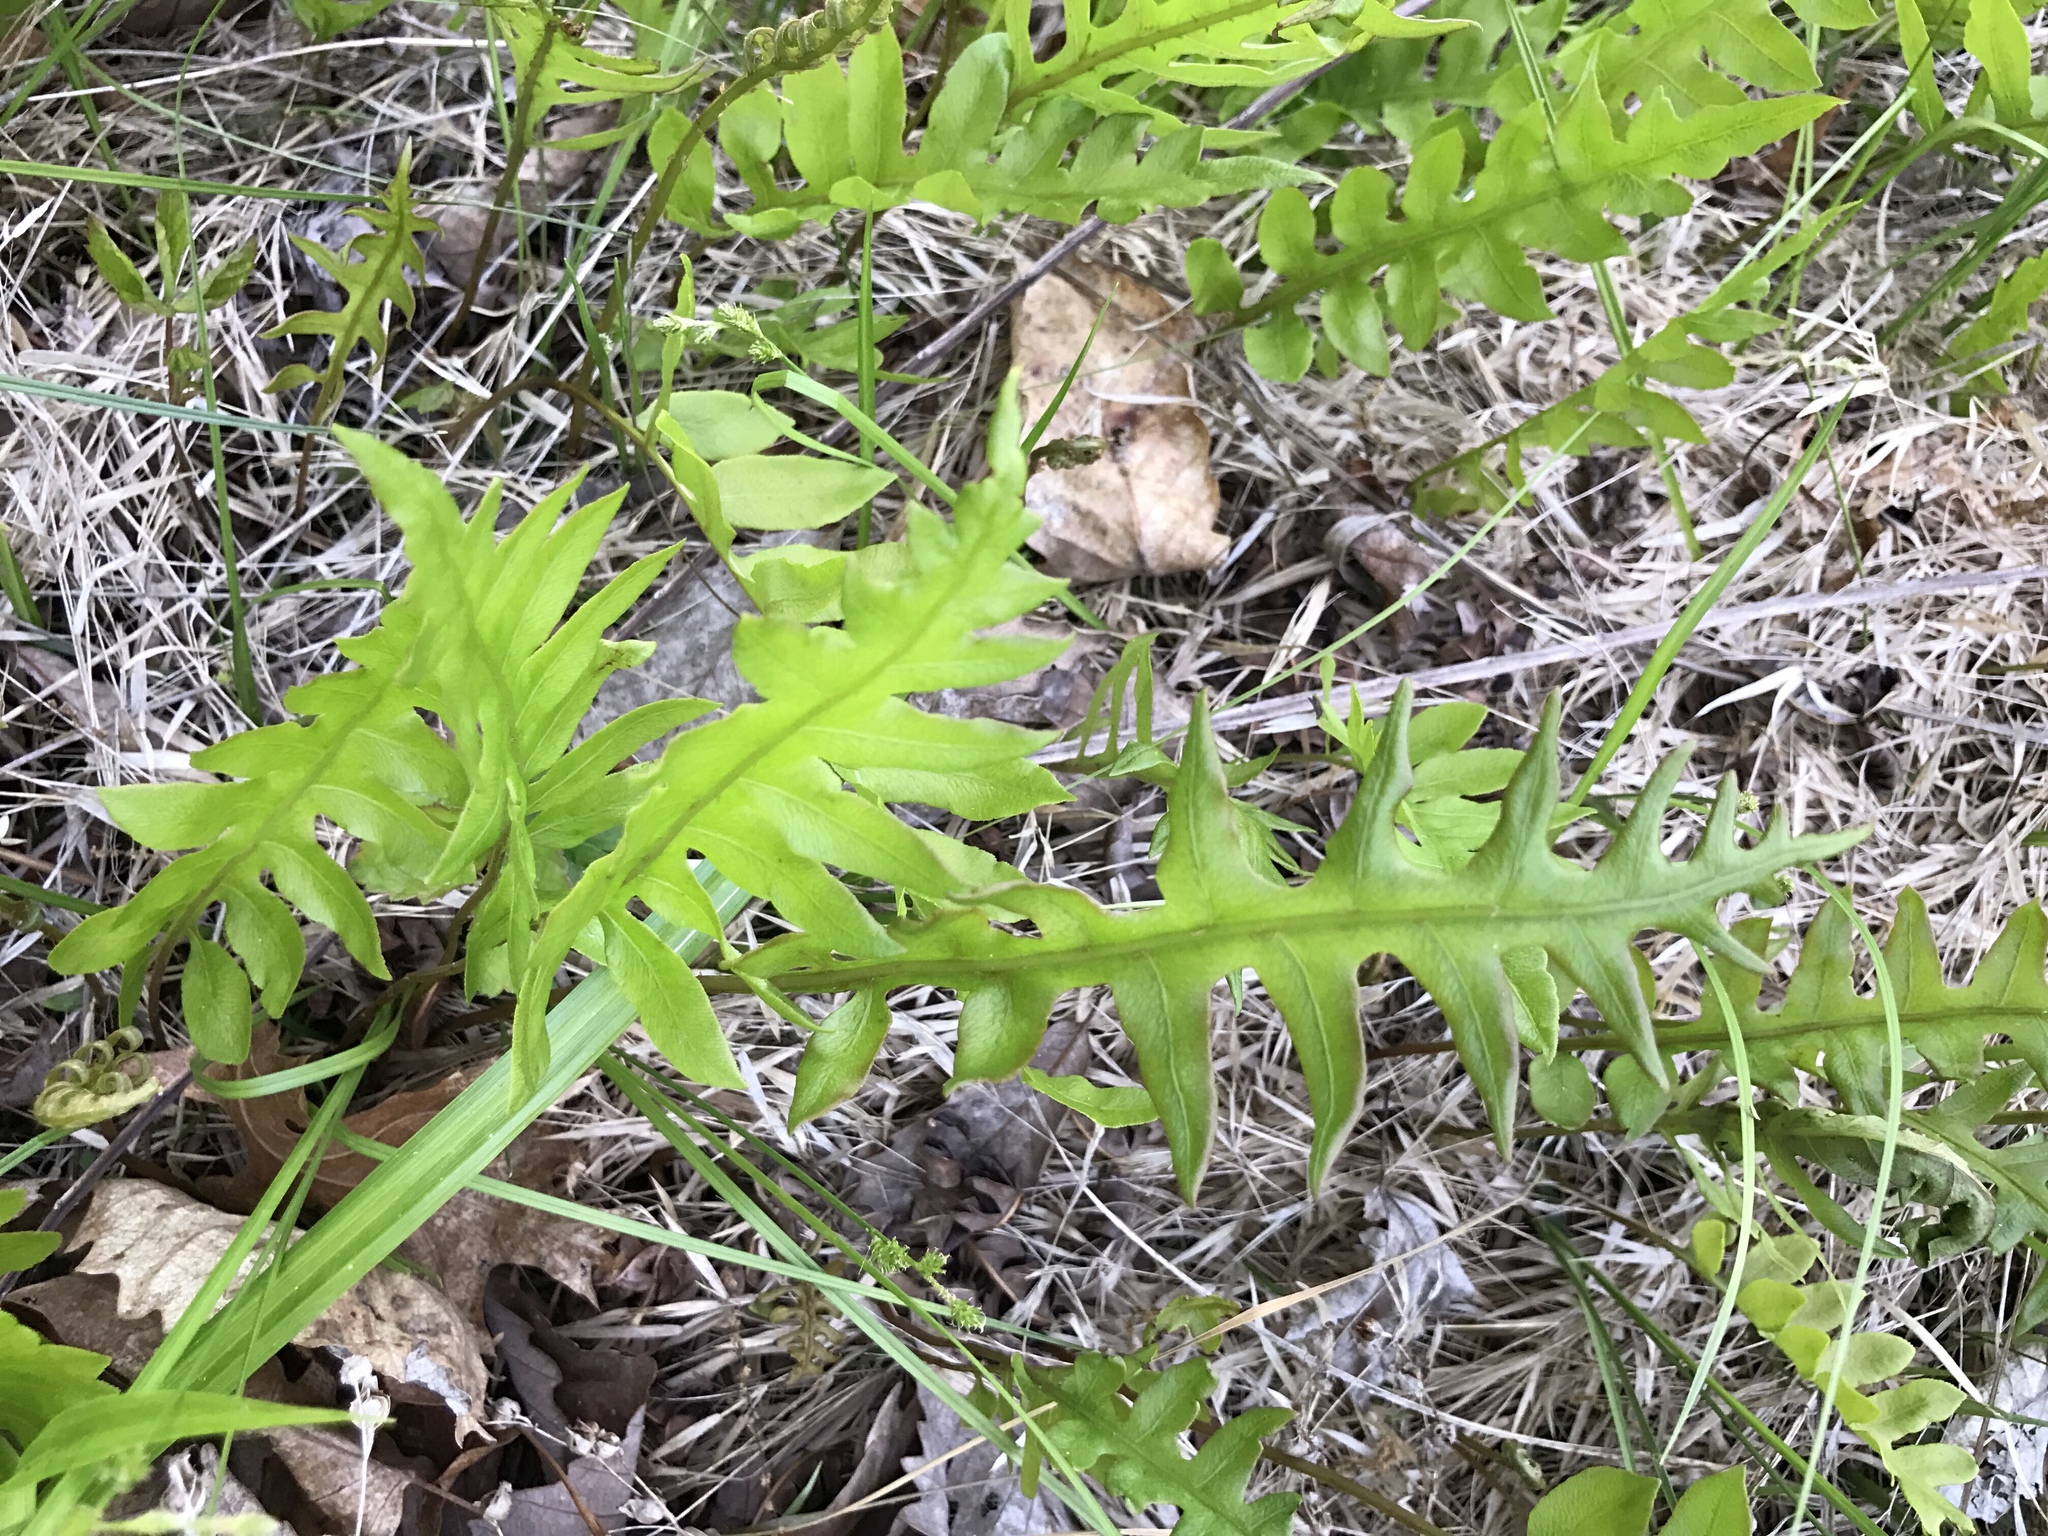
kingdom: Plantae
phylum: Tracheophyta
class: Polypodiopsida
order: Polypodiales
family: Blechnaceae
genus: Lorinseria
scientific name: Lorinseria areolata
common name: Dwarf chain fern
